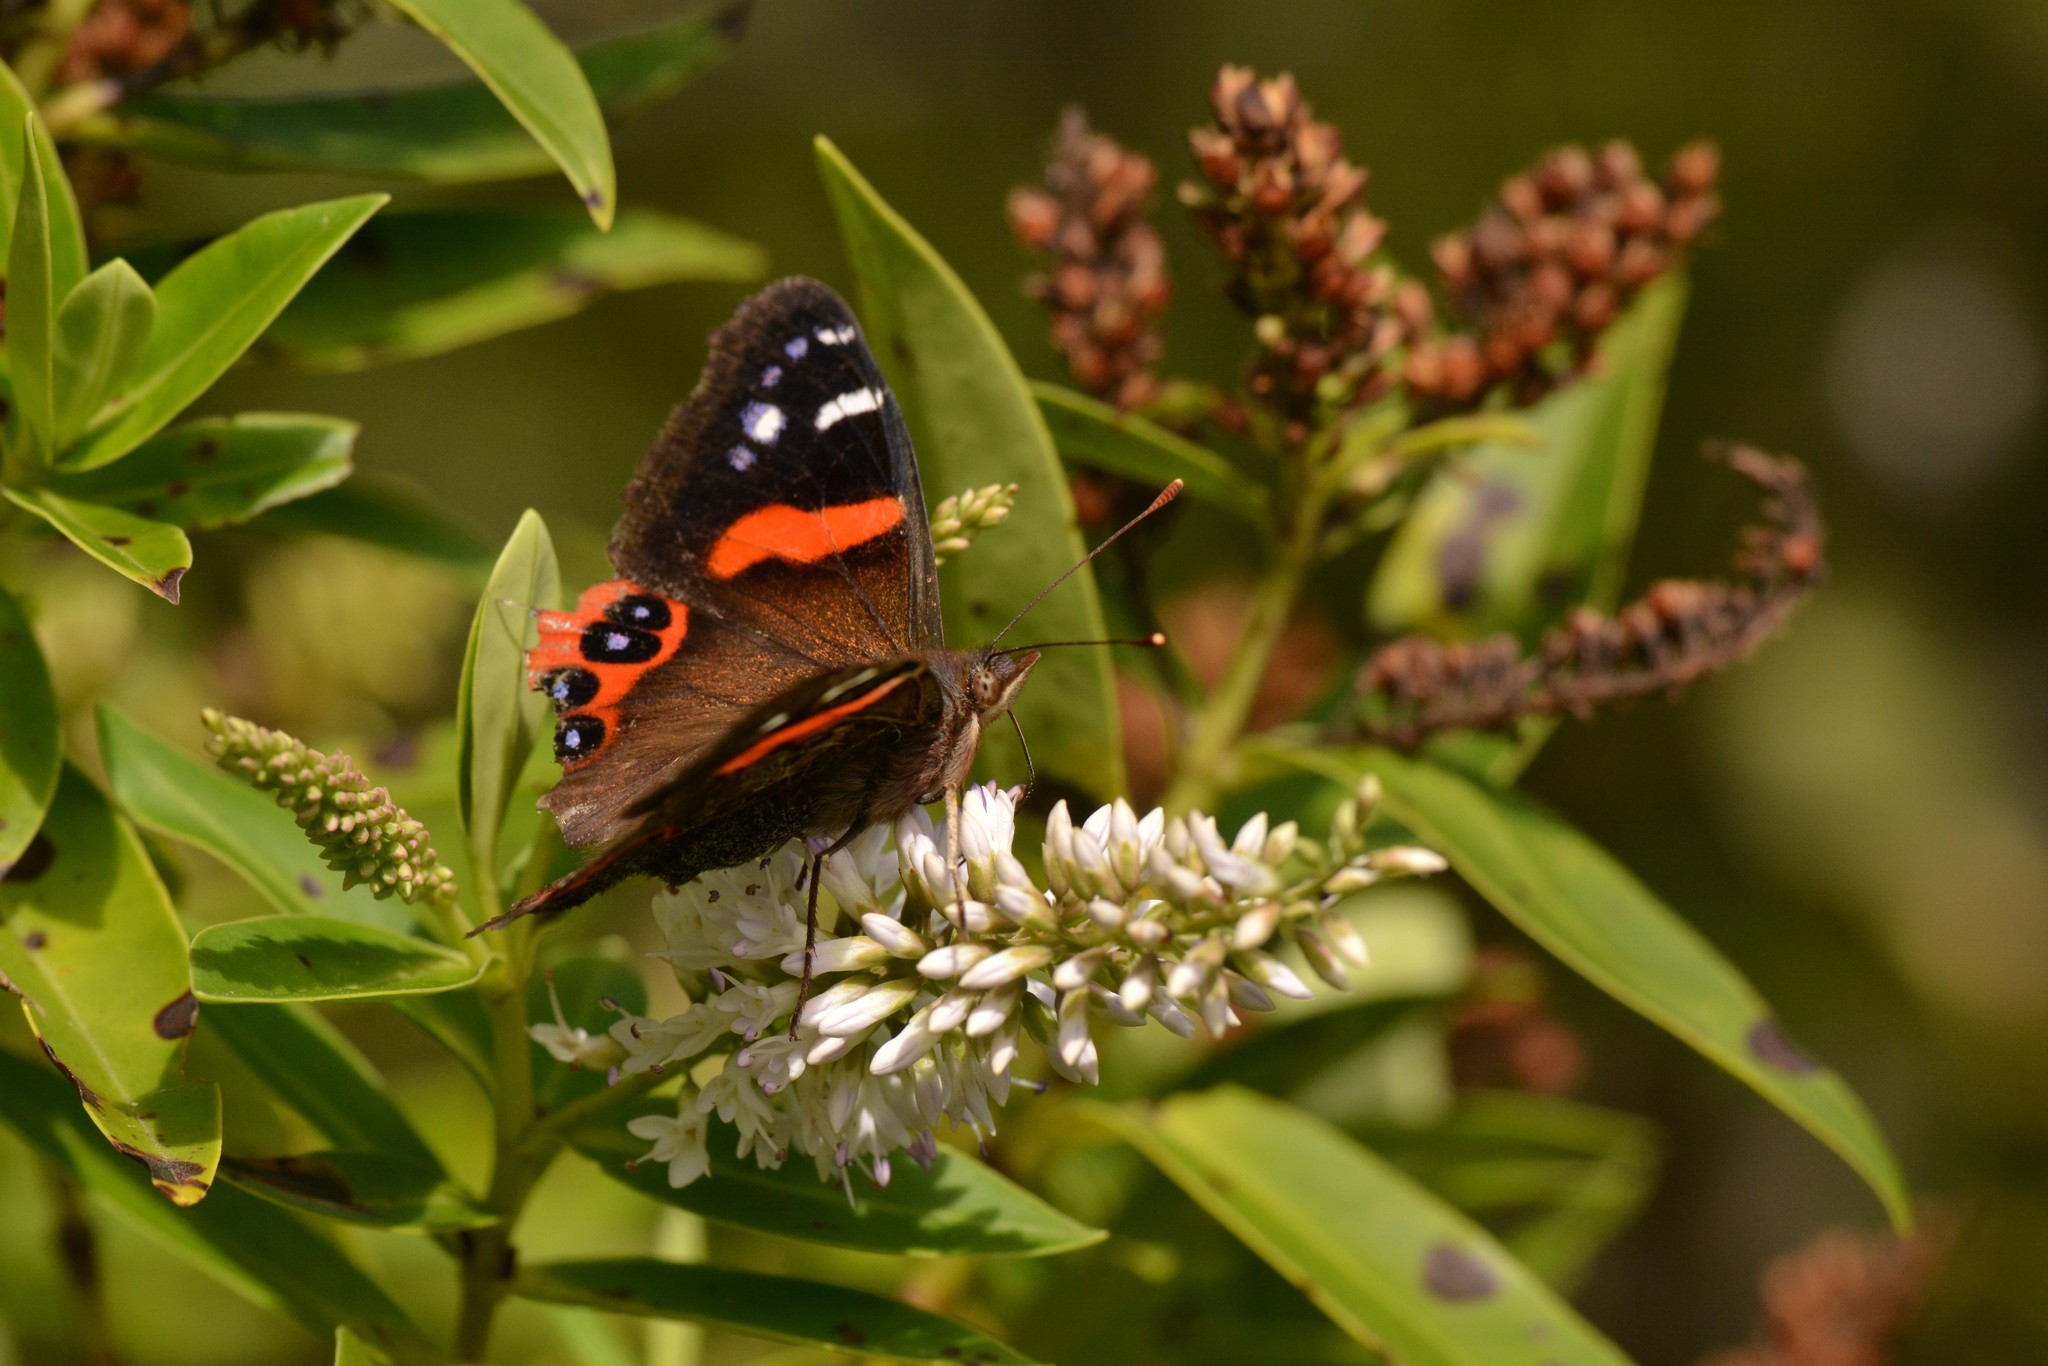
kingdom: Animalia
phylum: Arthropoda
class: Insecta
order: Lepidoptera
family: Nymphalidae
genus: Vanessa
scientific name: Vanessa gonerilla
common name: New zealand red admiral
